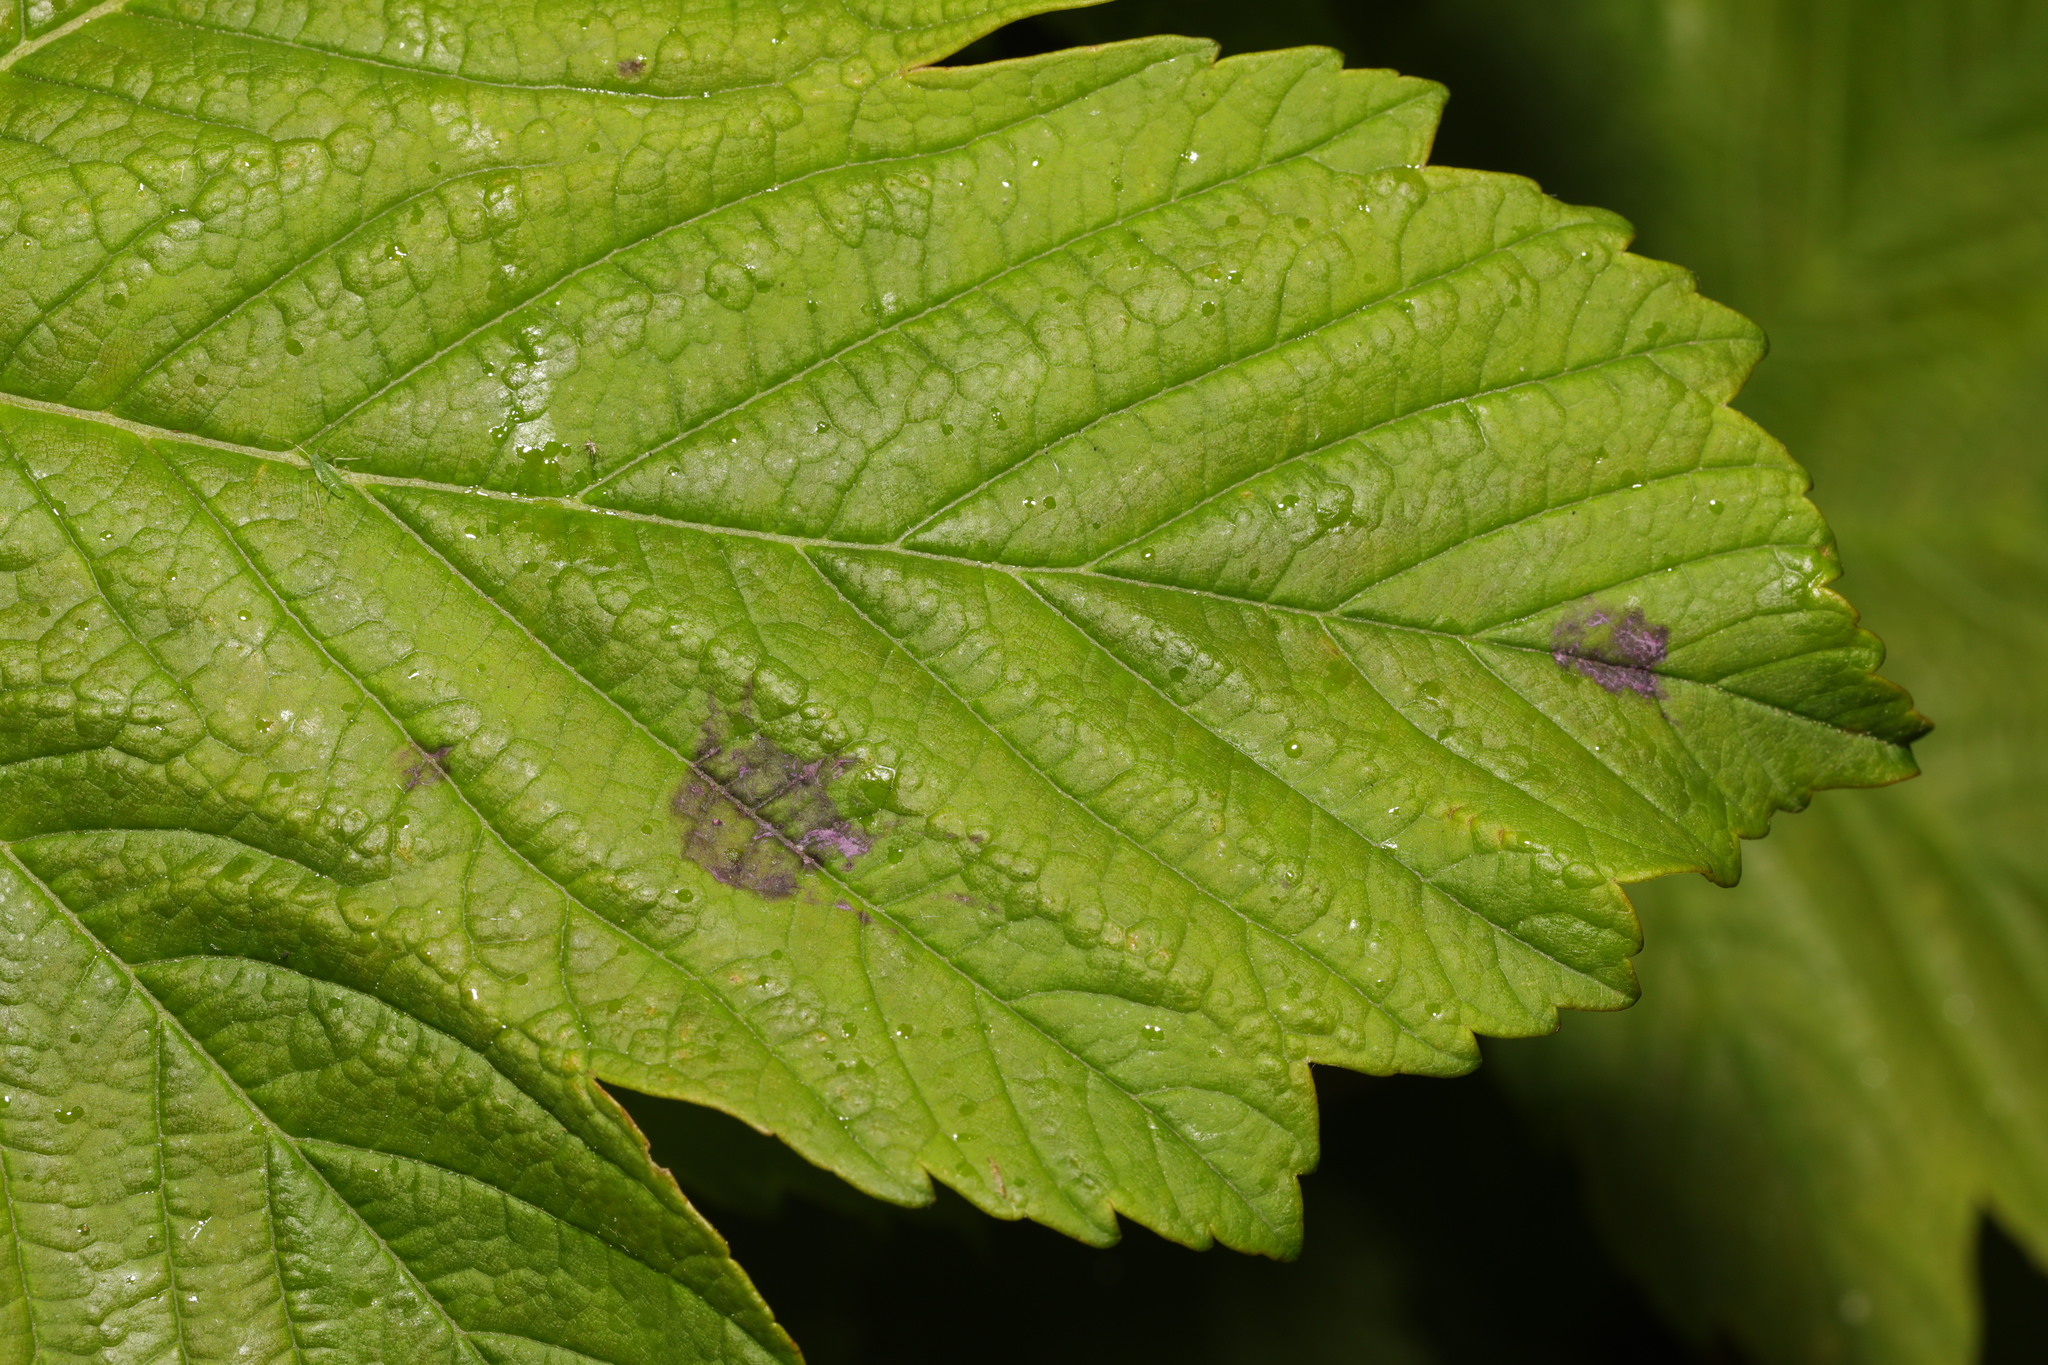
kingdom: Fungi
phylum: Ascomycota
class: Leotiomycetes
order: Rhytismatales
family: Rhytismataceae
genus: Rhytisma
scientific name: Rhytisma acerinum
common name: European tar spot
